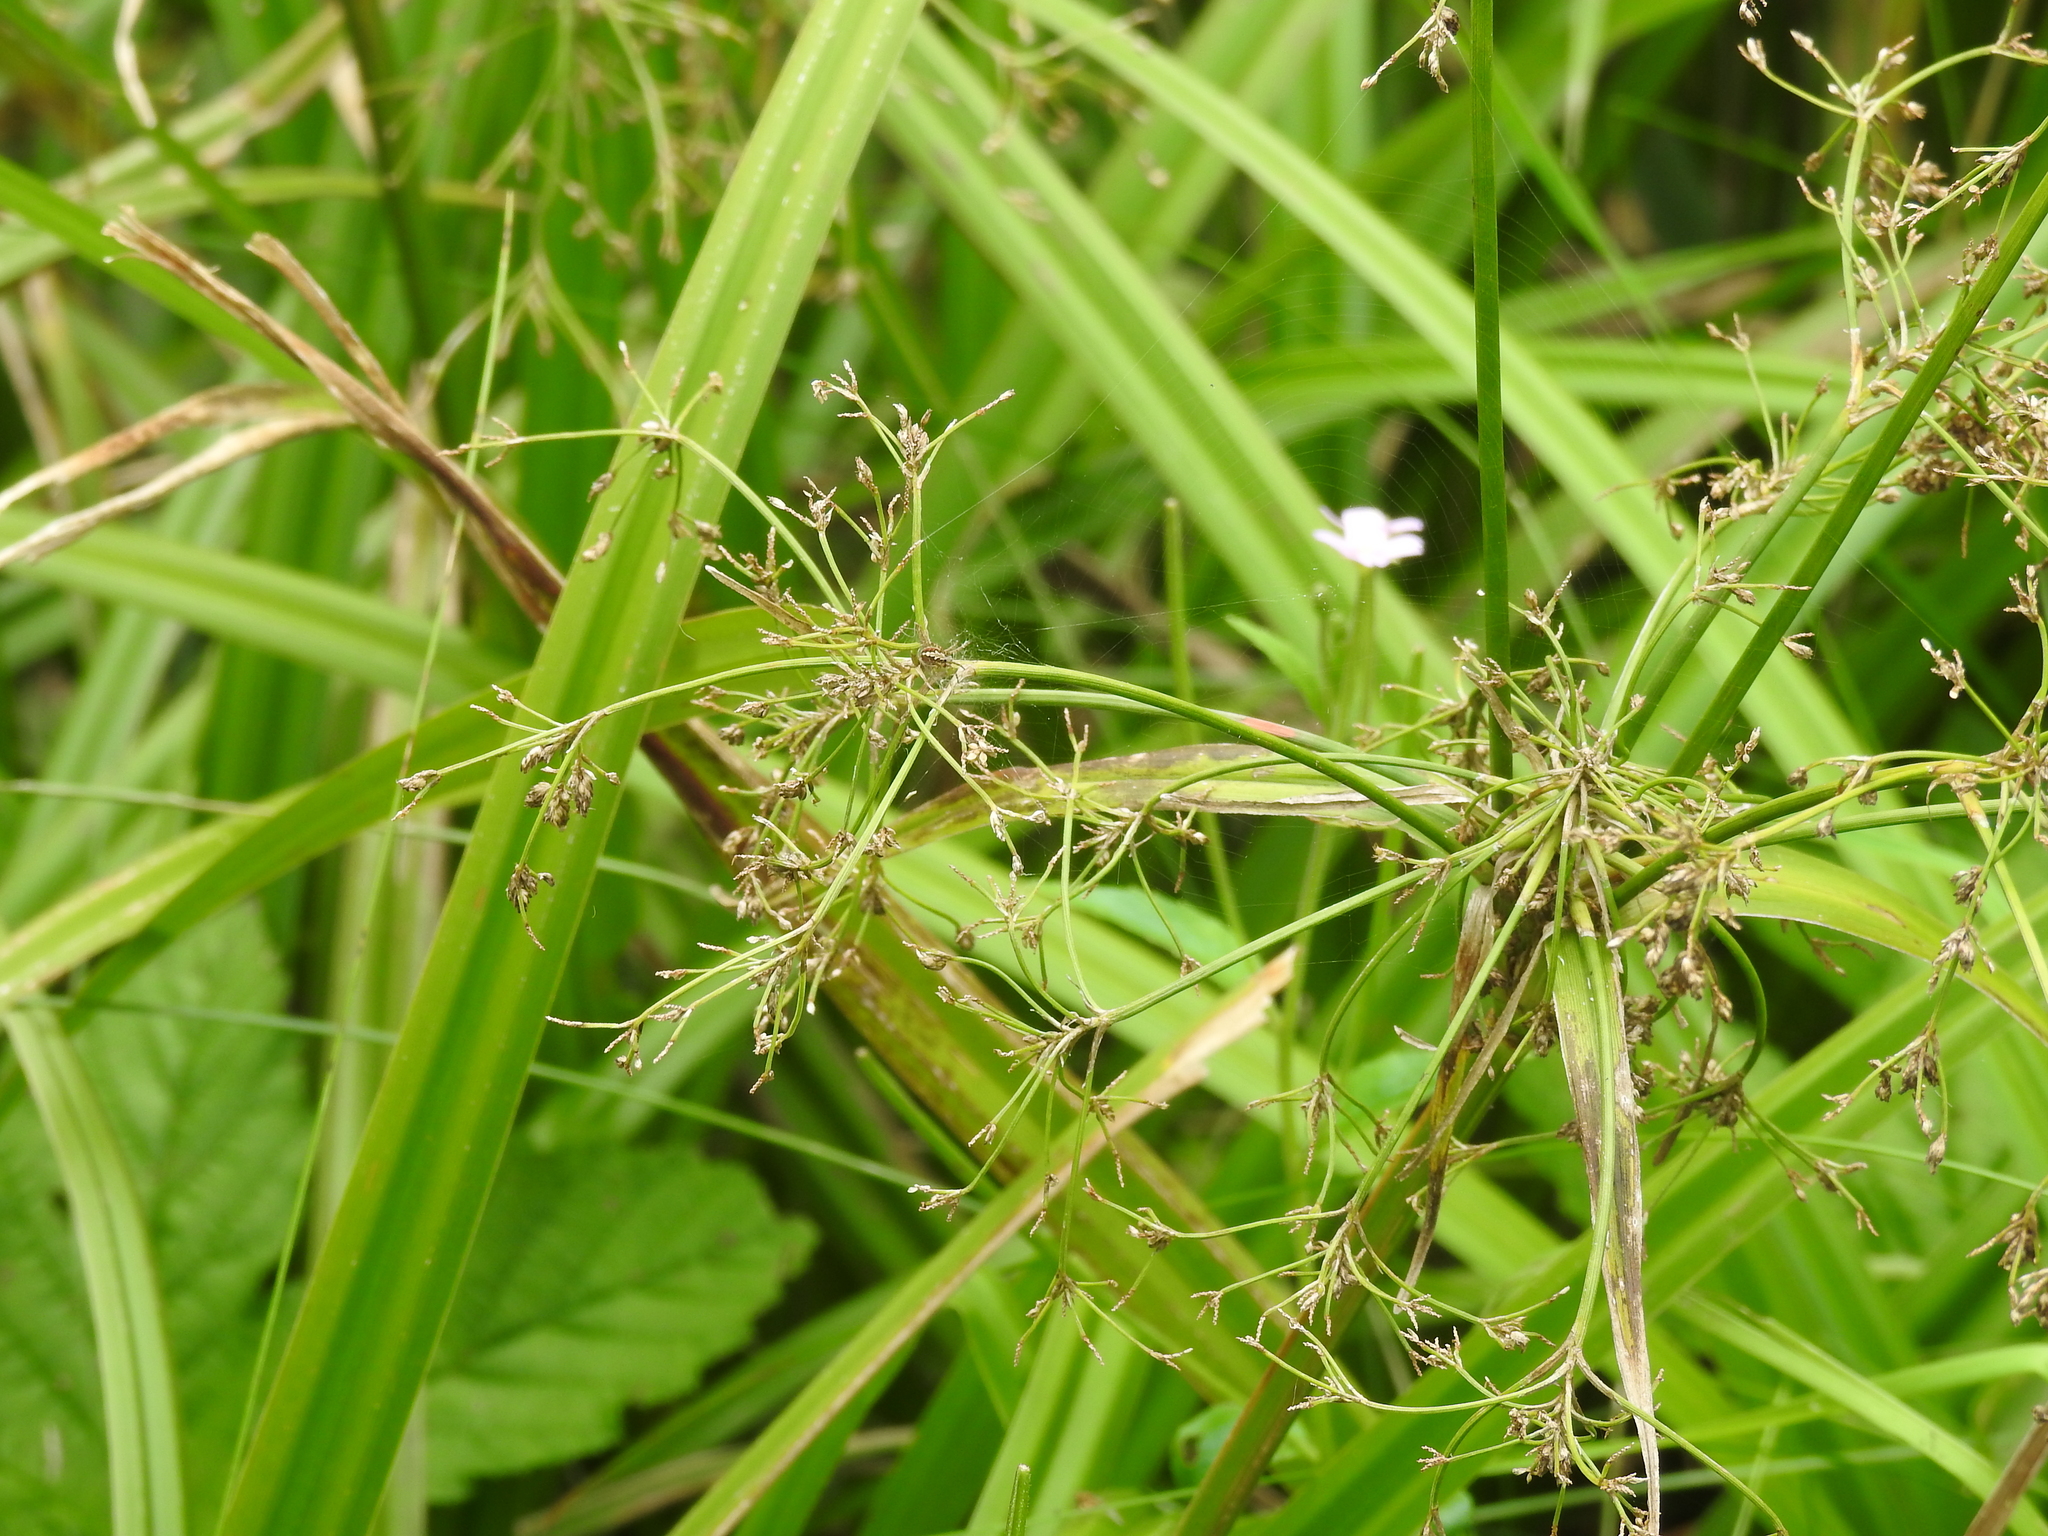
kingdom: Plantae
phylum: Tracheophyta
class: Liliopsida
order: Poales
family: Cyperaceae
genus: Scirpus
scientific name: Scirpus sylvaticus
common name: Wood club-rush
